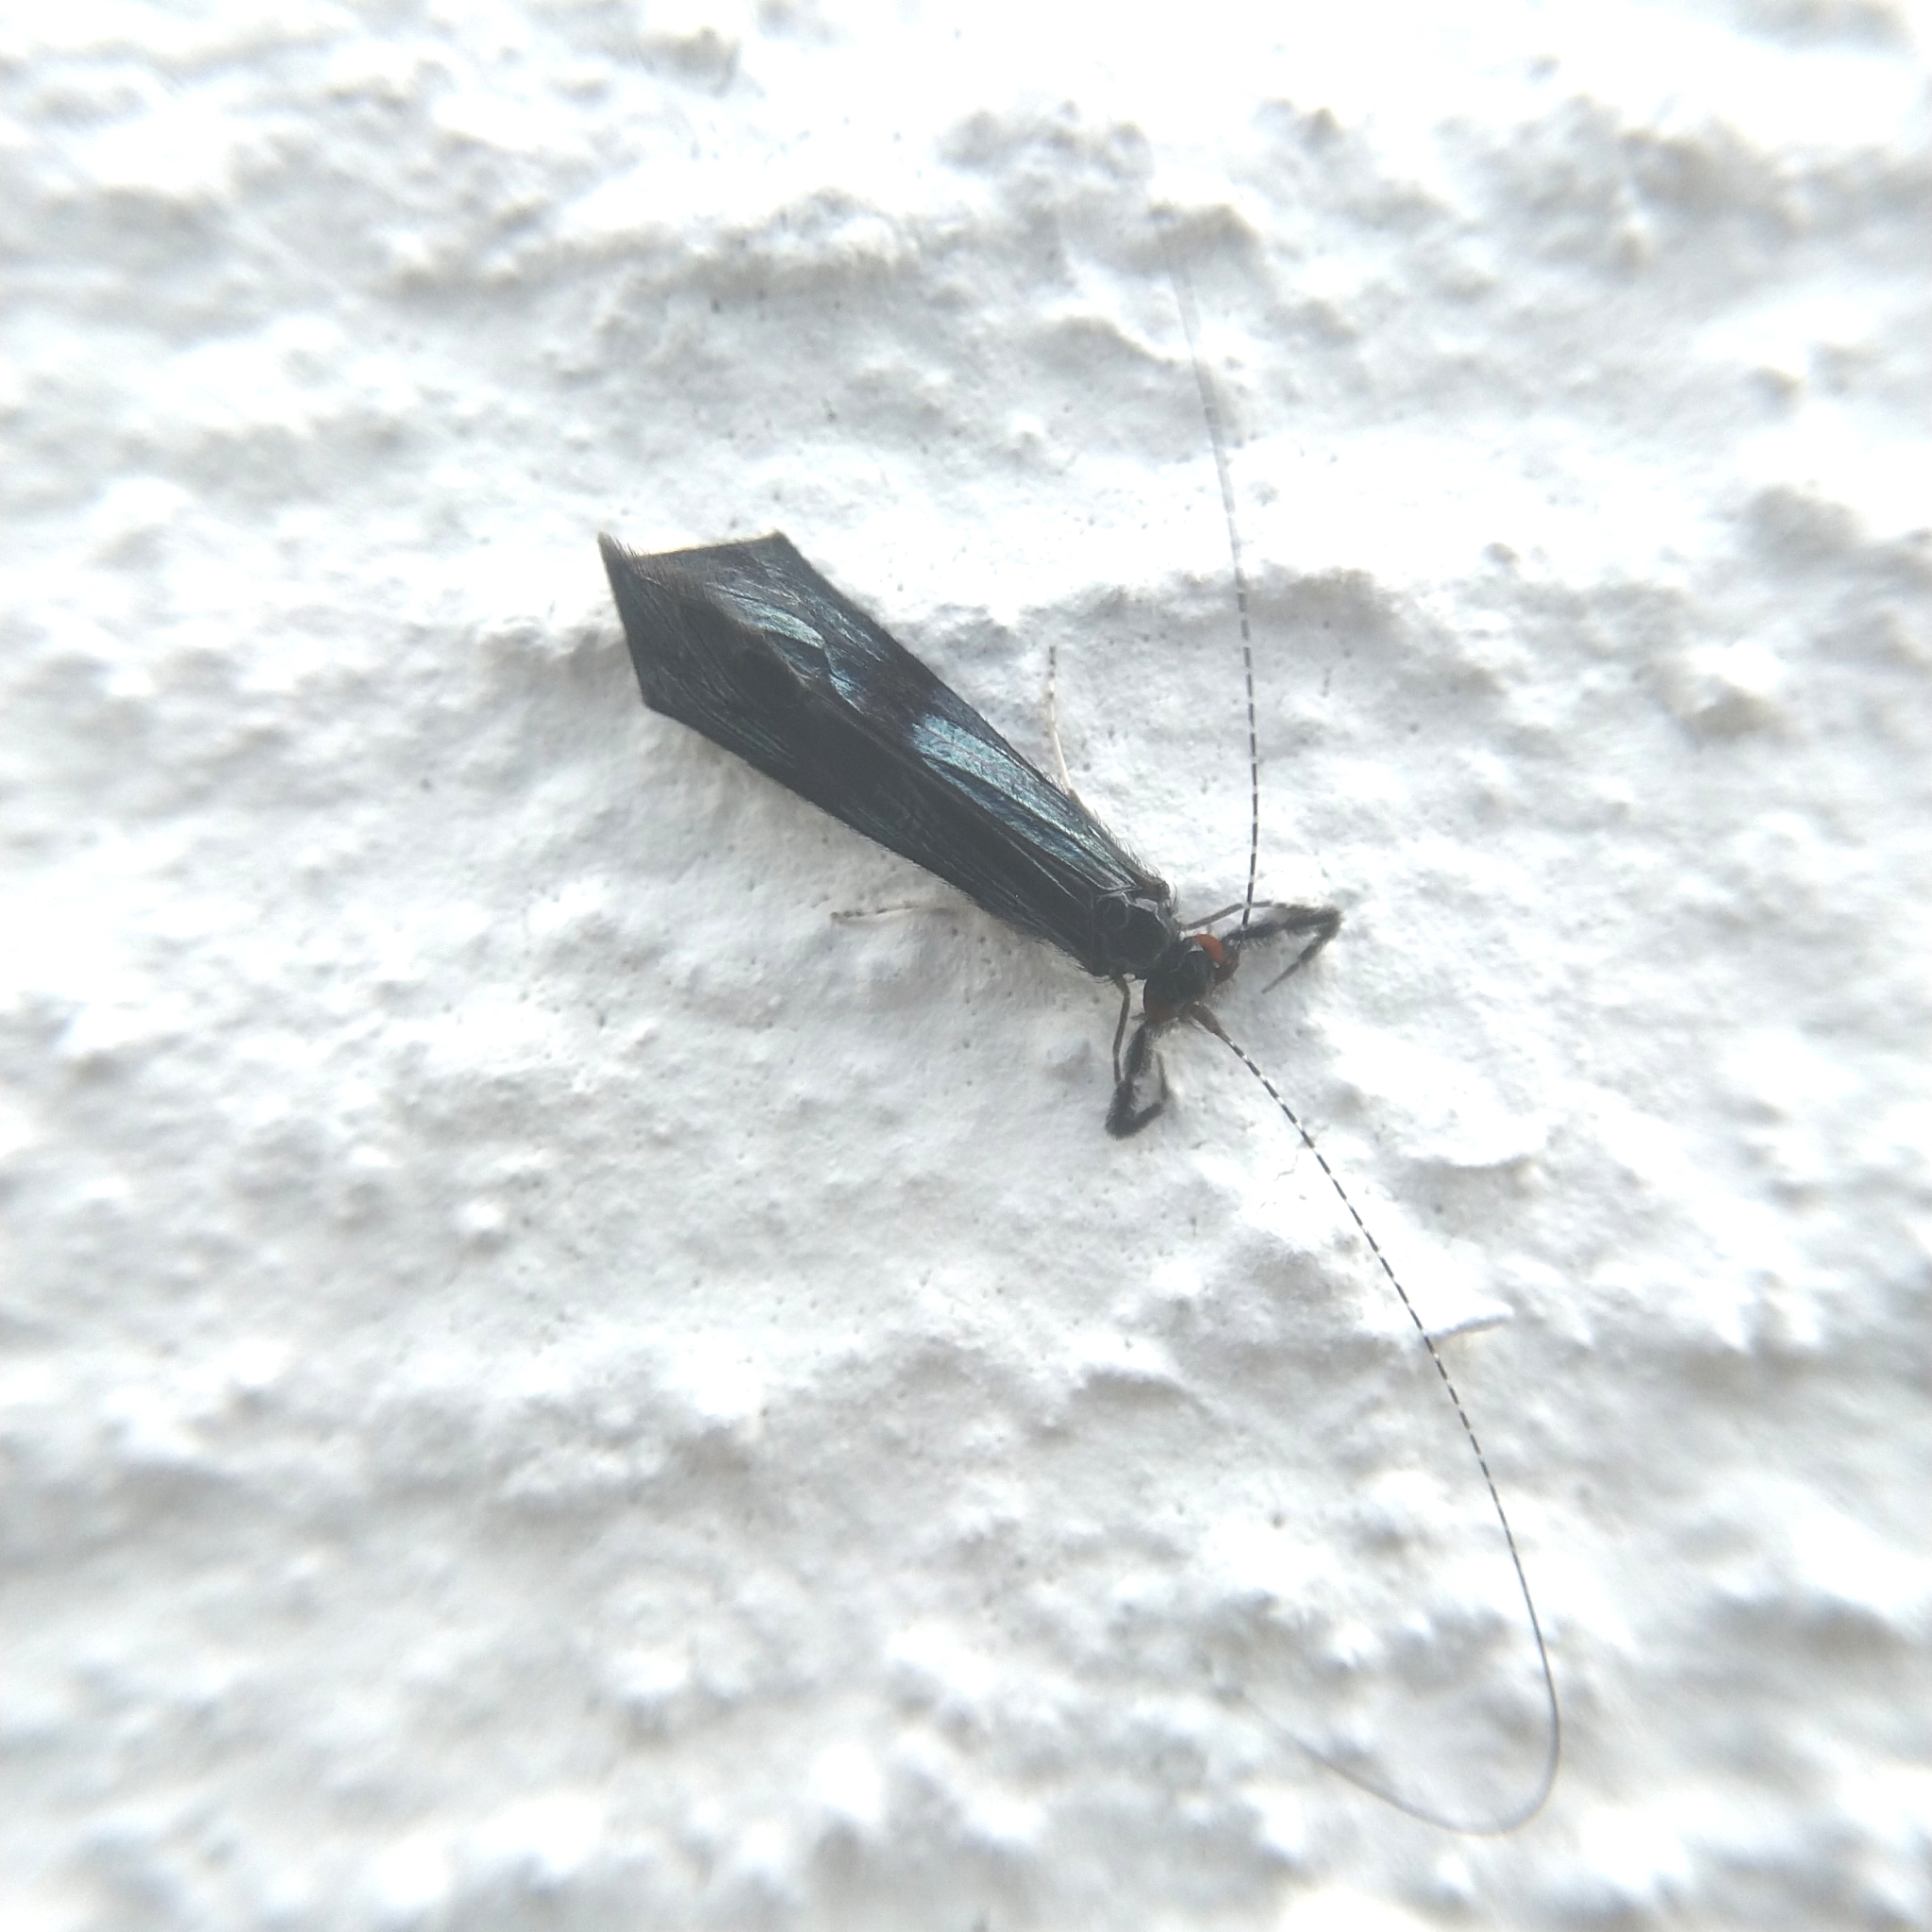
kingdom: Animalia
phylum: Arthropoda
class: Insecta
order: Trichoptera
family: Leptoceridae
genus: Mystacides
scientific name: Mystacides azureus
